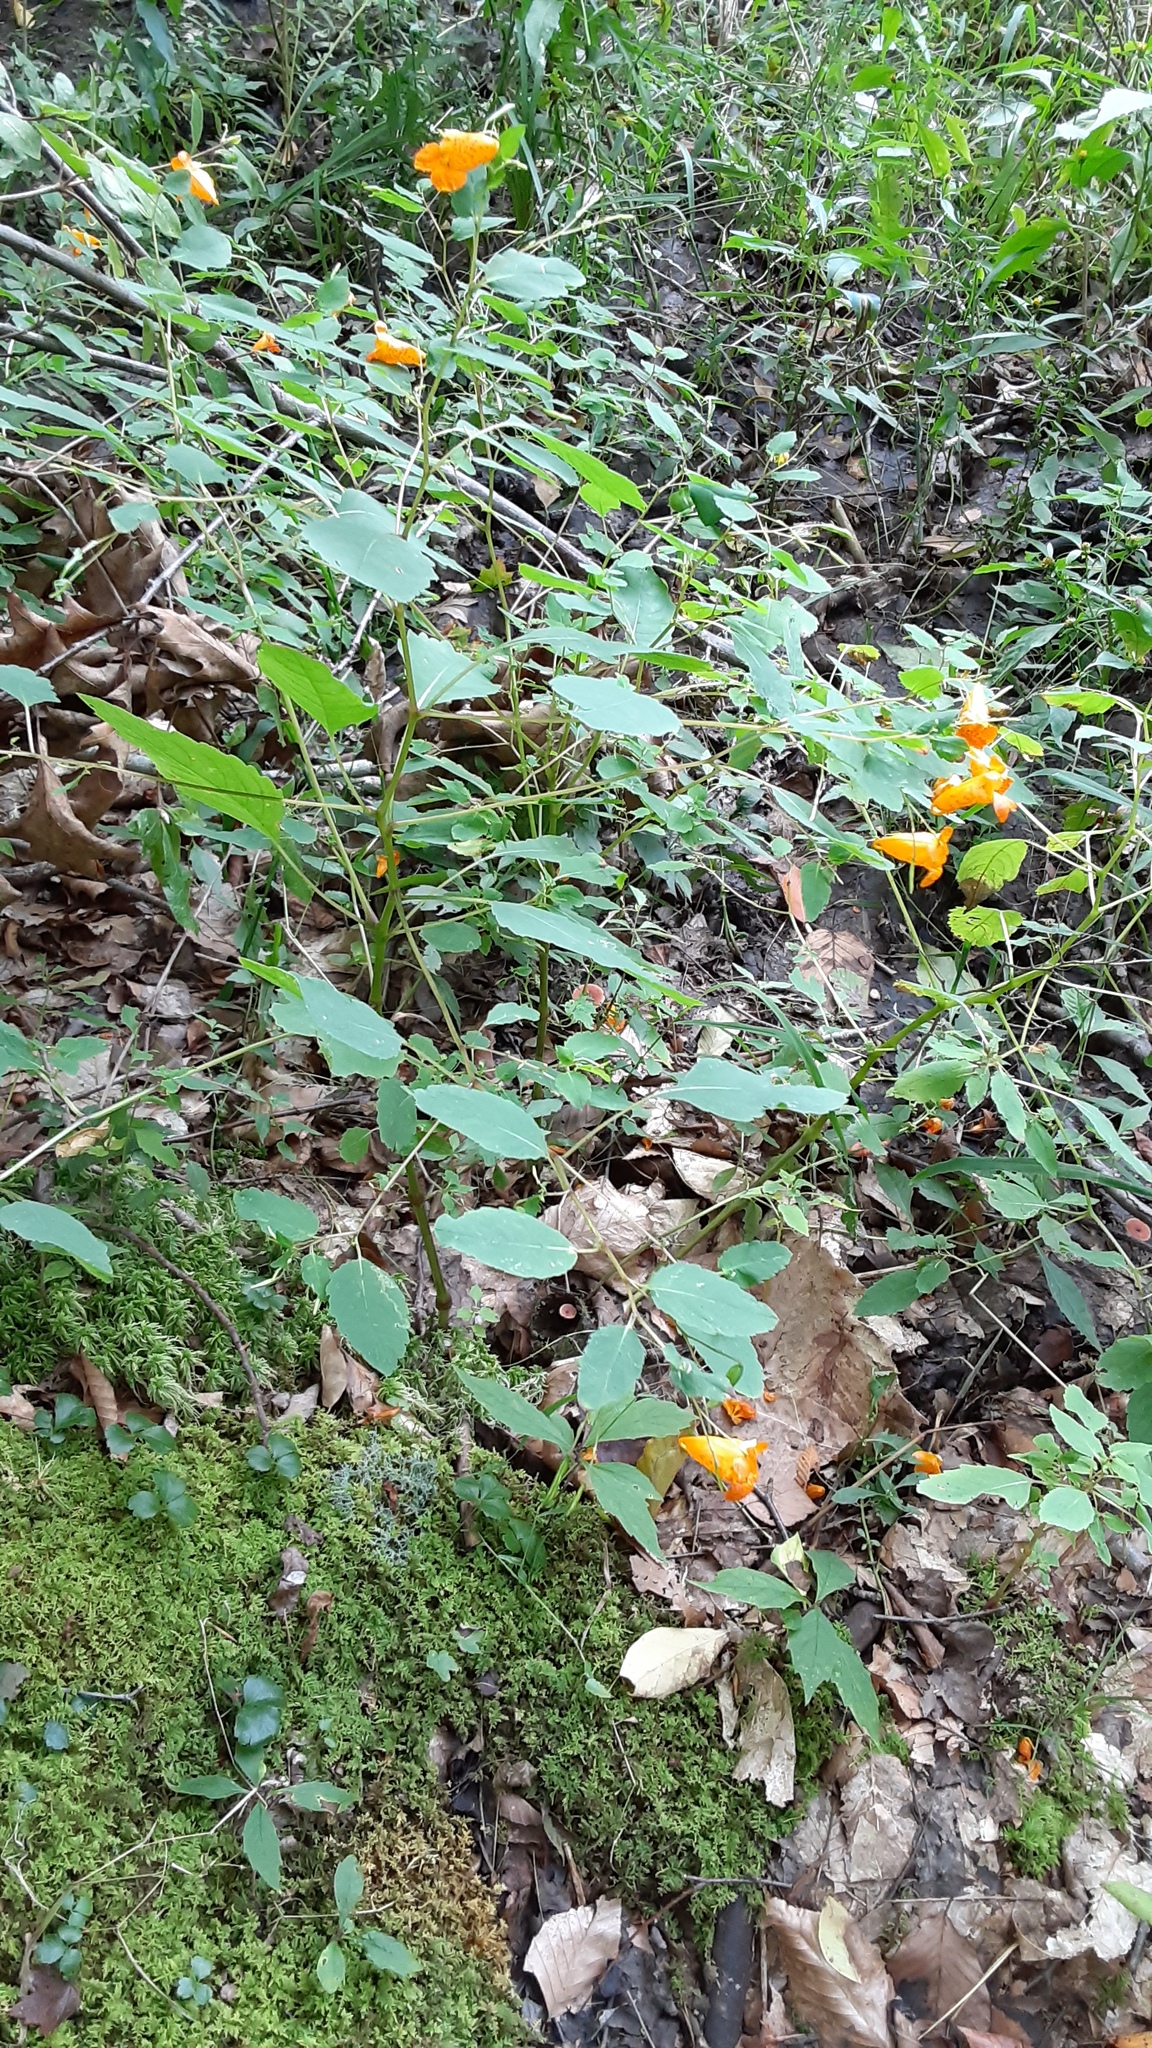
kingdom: Plantae
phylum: Tracheophyta
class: Magnoliopsida
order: Ericales
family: Balsaminaceae
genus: Impatiens
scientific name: Impatiens capensis
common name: Orange balsam
